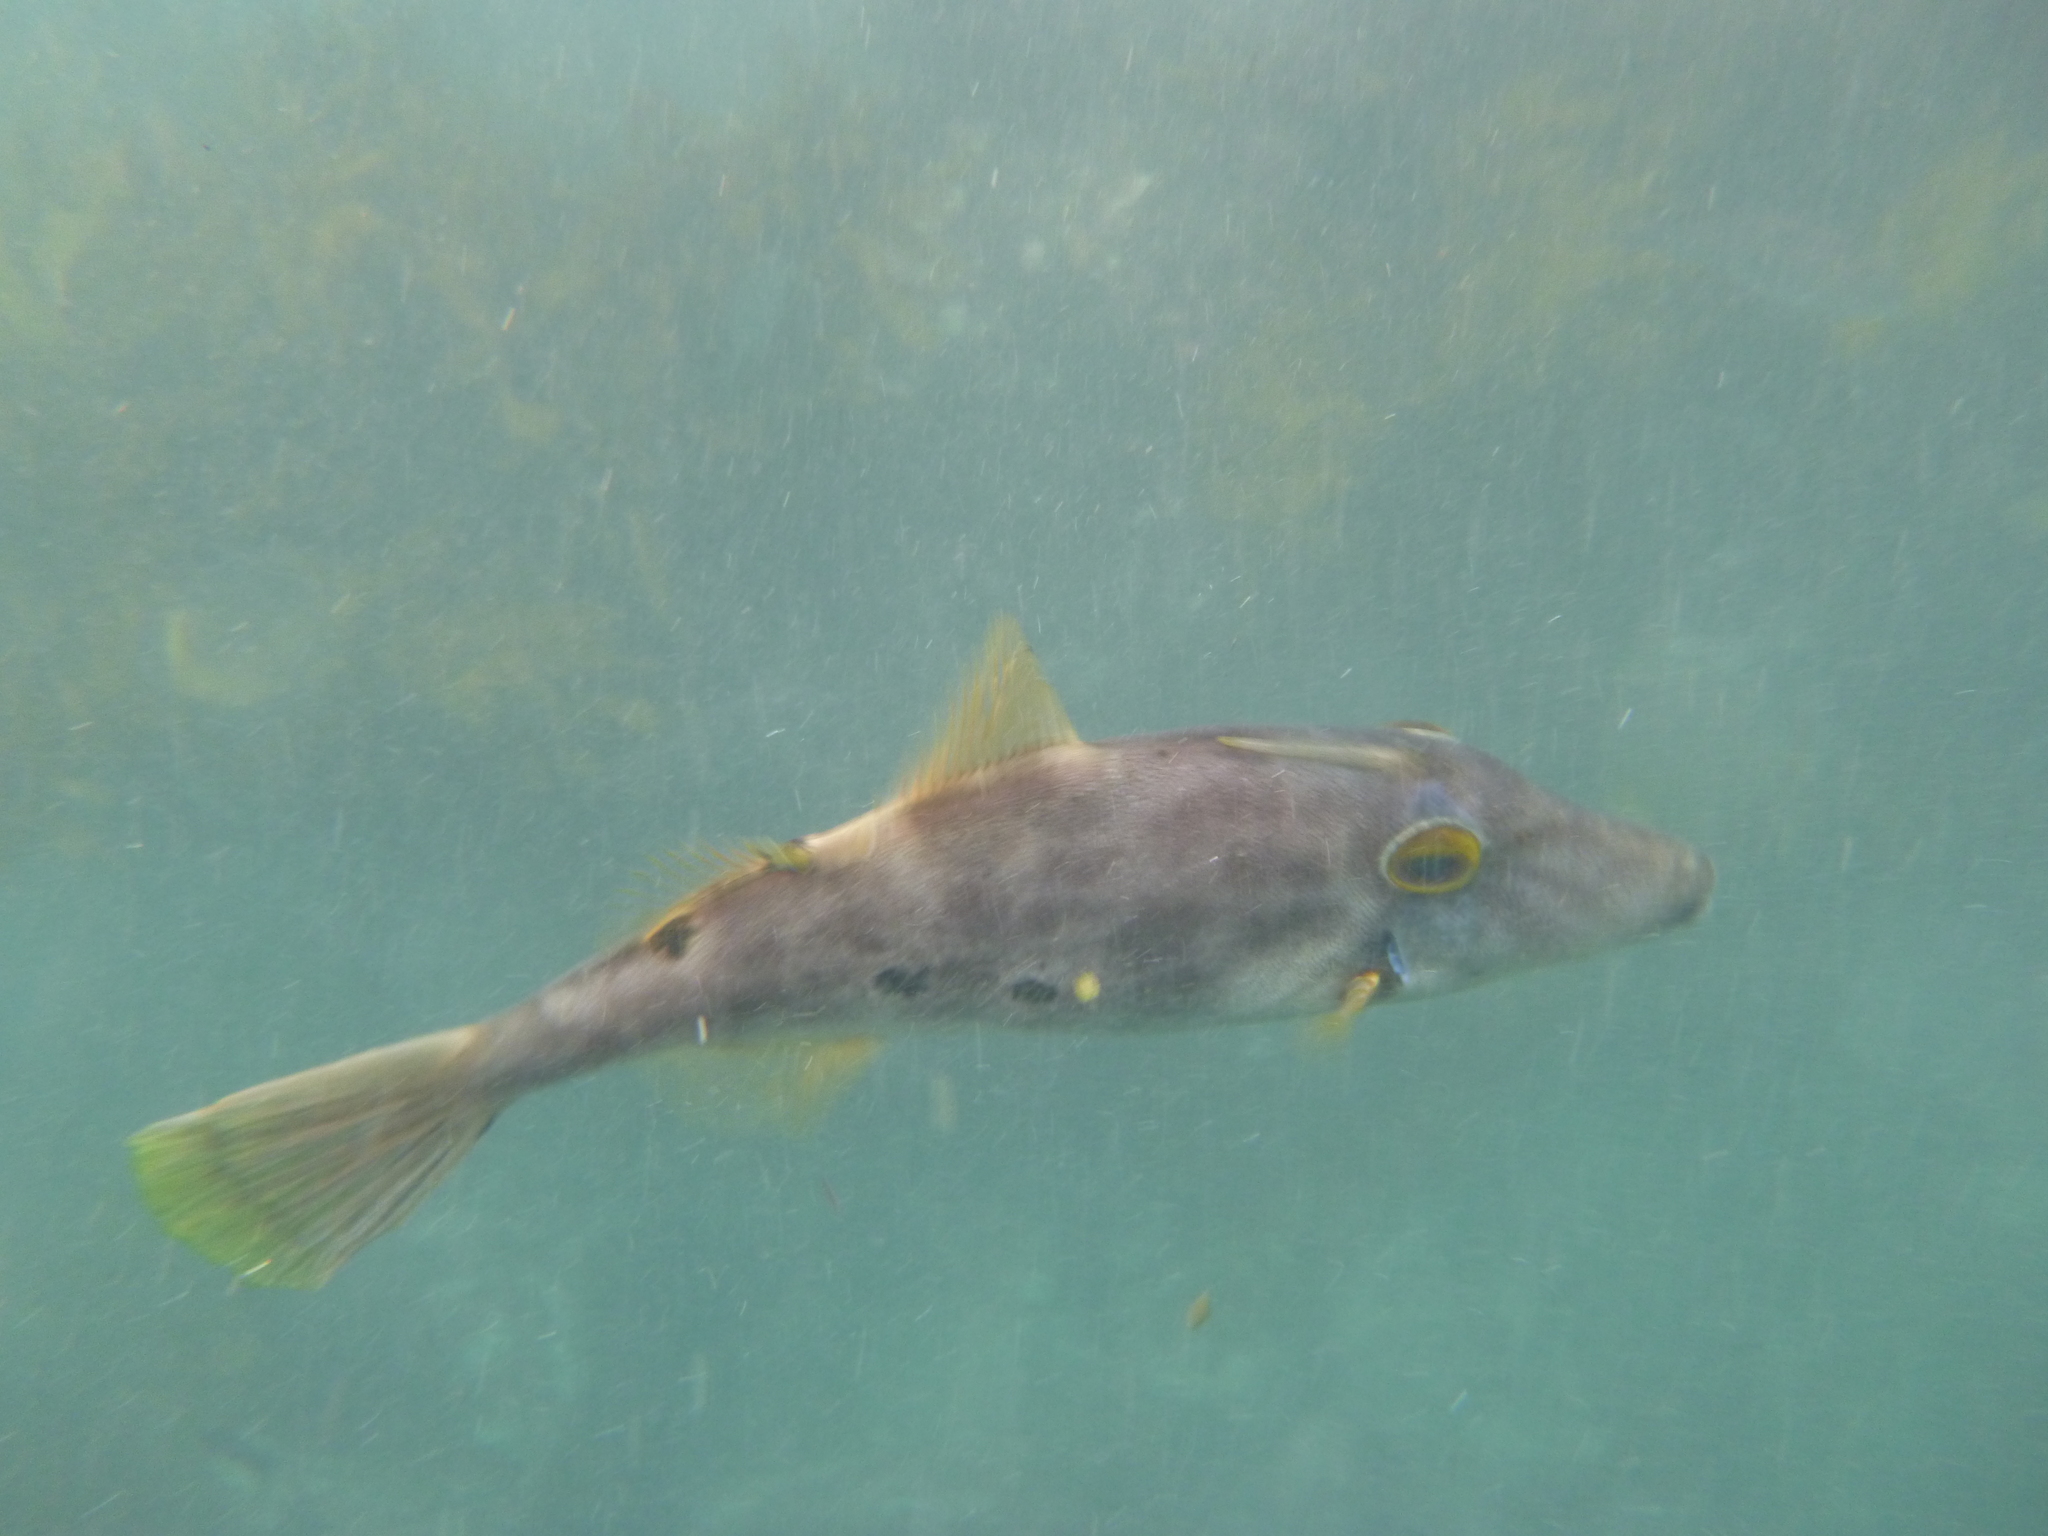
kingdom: Animalia
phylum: Chordata
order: Tetraodontiformes
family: Monacanthidae
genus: Meuschenia
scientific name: Meuschenia scaber
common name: Cosmopolitan leatherjacket
